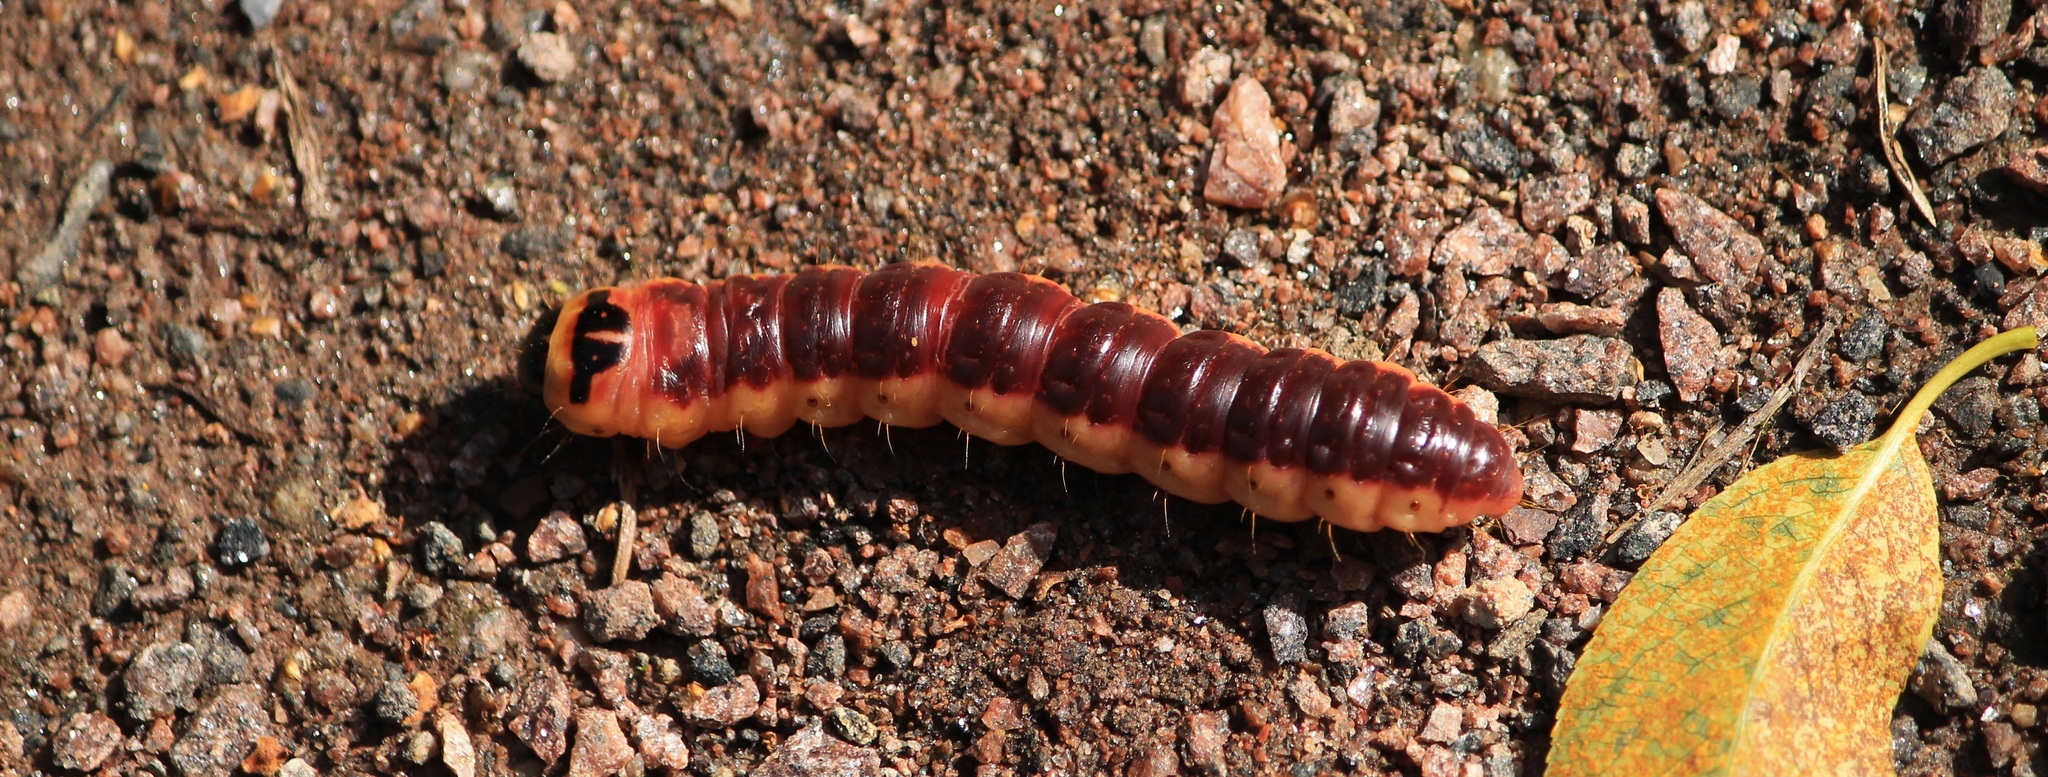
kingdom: Animalia
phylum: Arthropoda
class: Insecta
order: Lepidoptera
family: Cossidae
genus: Cossus
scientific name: Cossus cossus
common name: Goat moth
